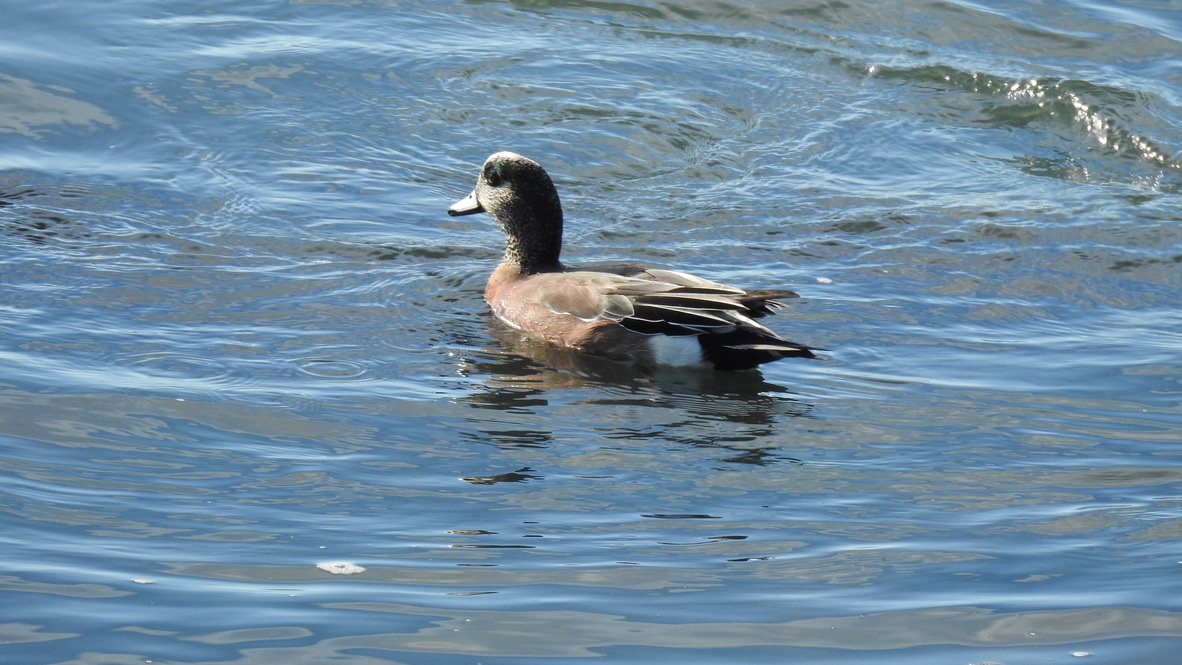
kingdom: Animalia
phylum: Chordata
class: Aves
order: Anseriformes
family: Anatidae
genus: Mareca
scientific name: Mareca americana
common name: American wigeon
